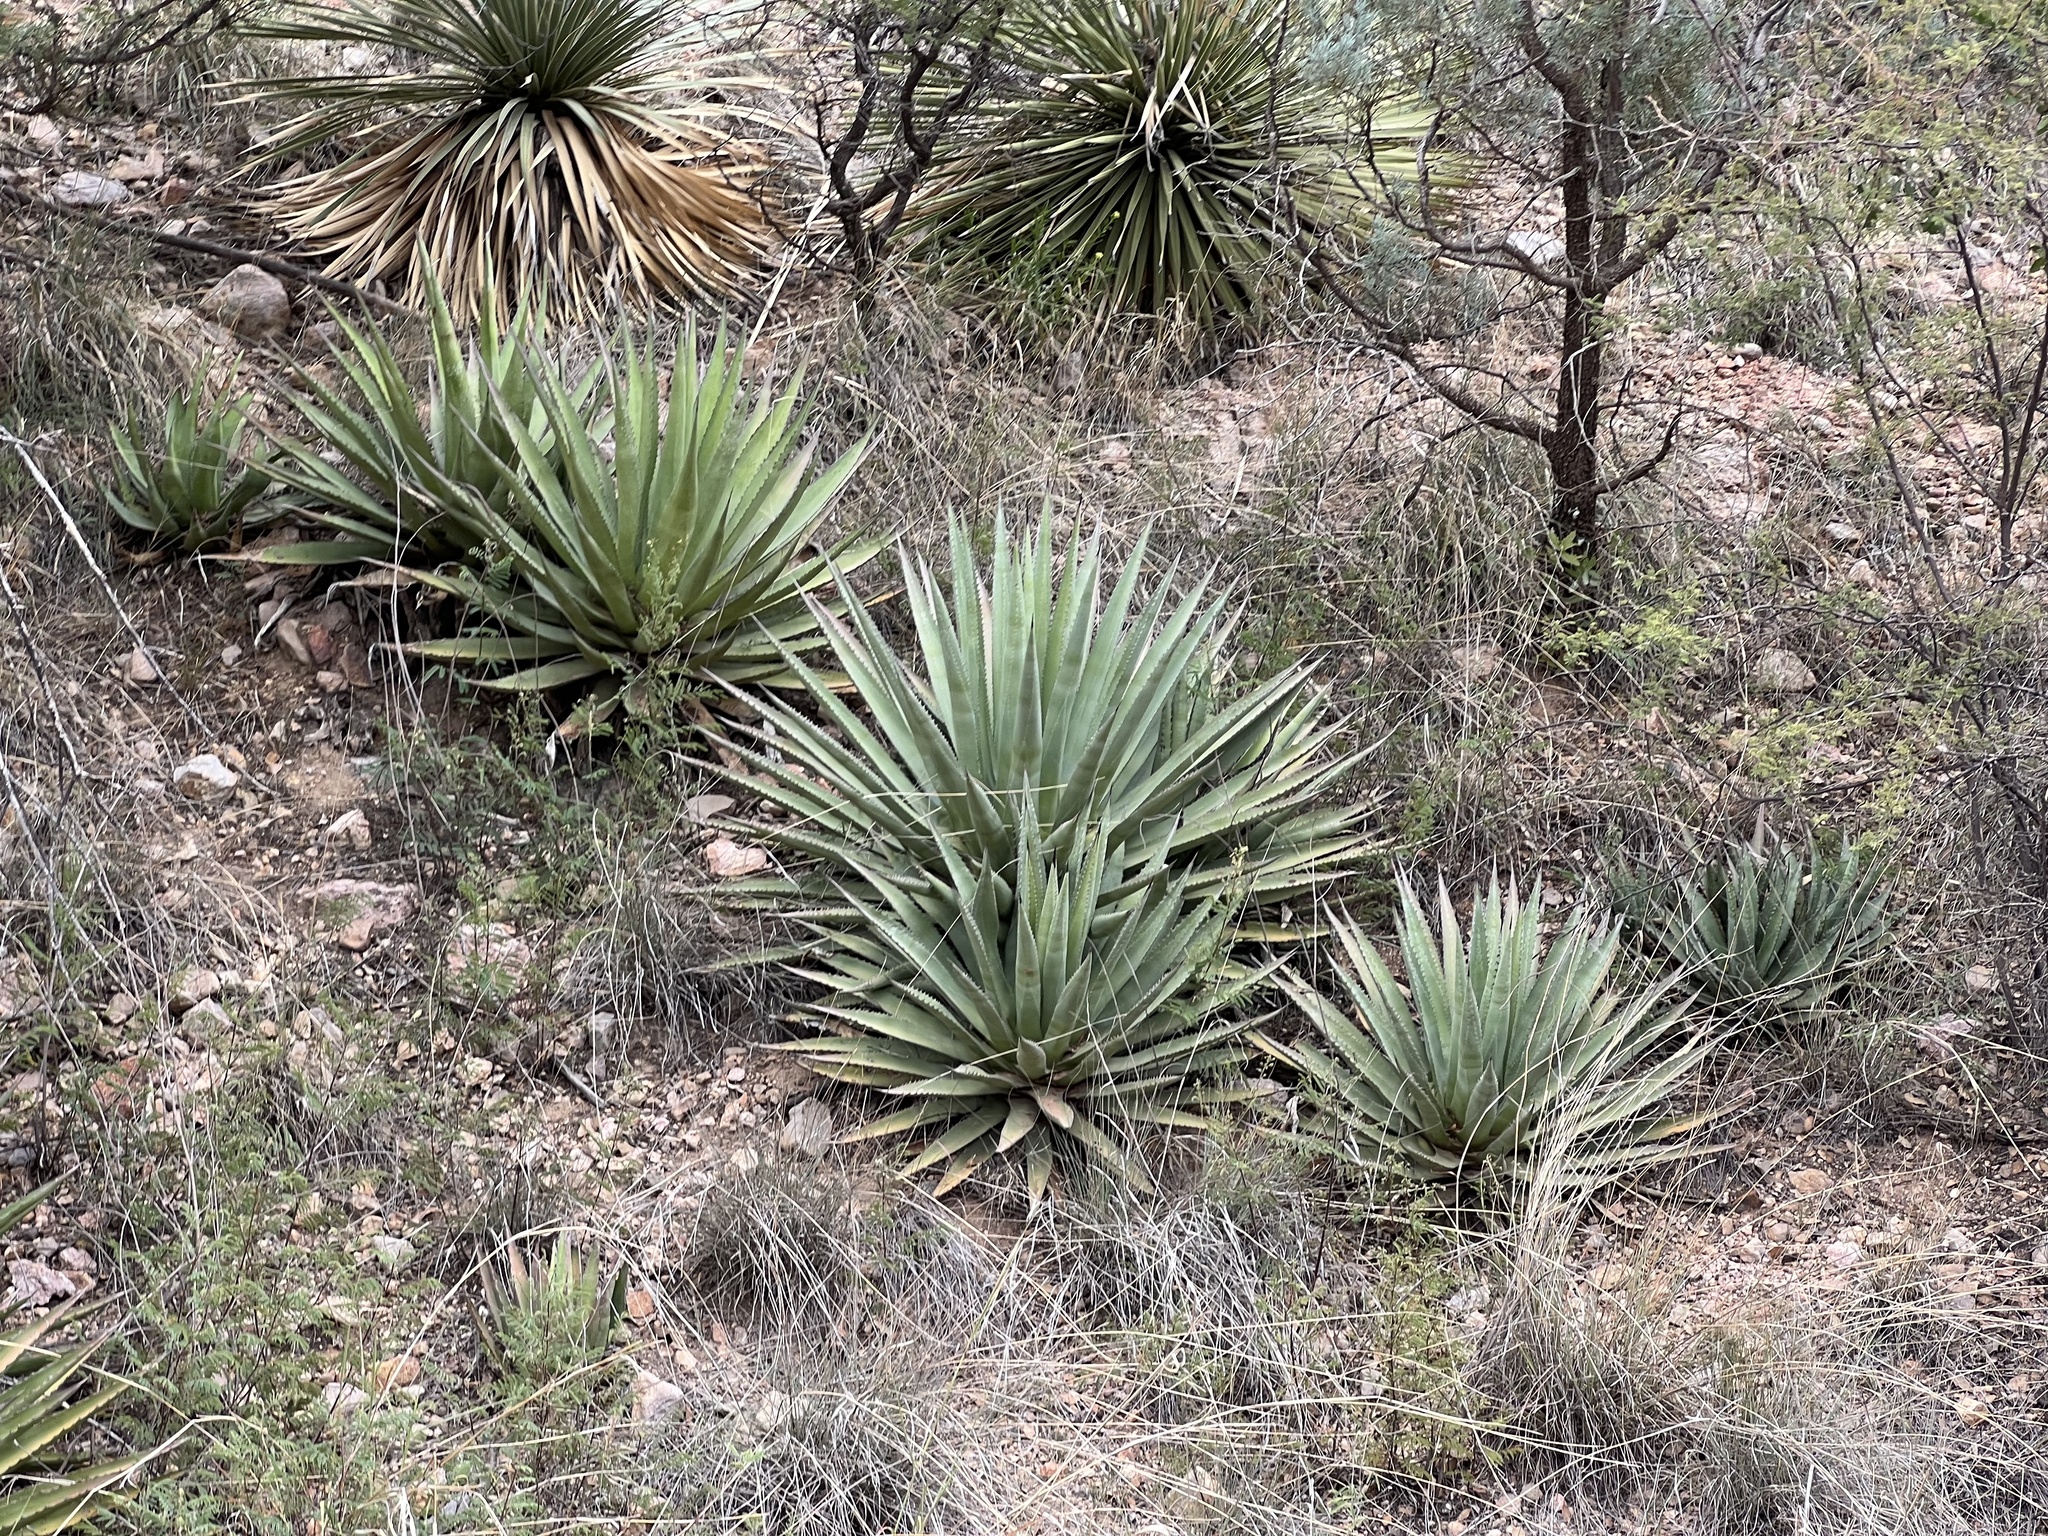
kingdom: Plantae
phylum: Tracheophyta
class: Liliopsida
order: Asparagales
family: Asparagaceae
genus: Agave
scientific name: Agave palmeri
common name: Palmer agave
